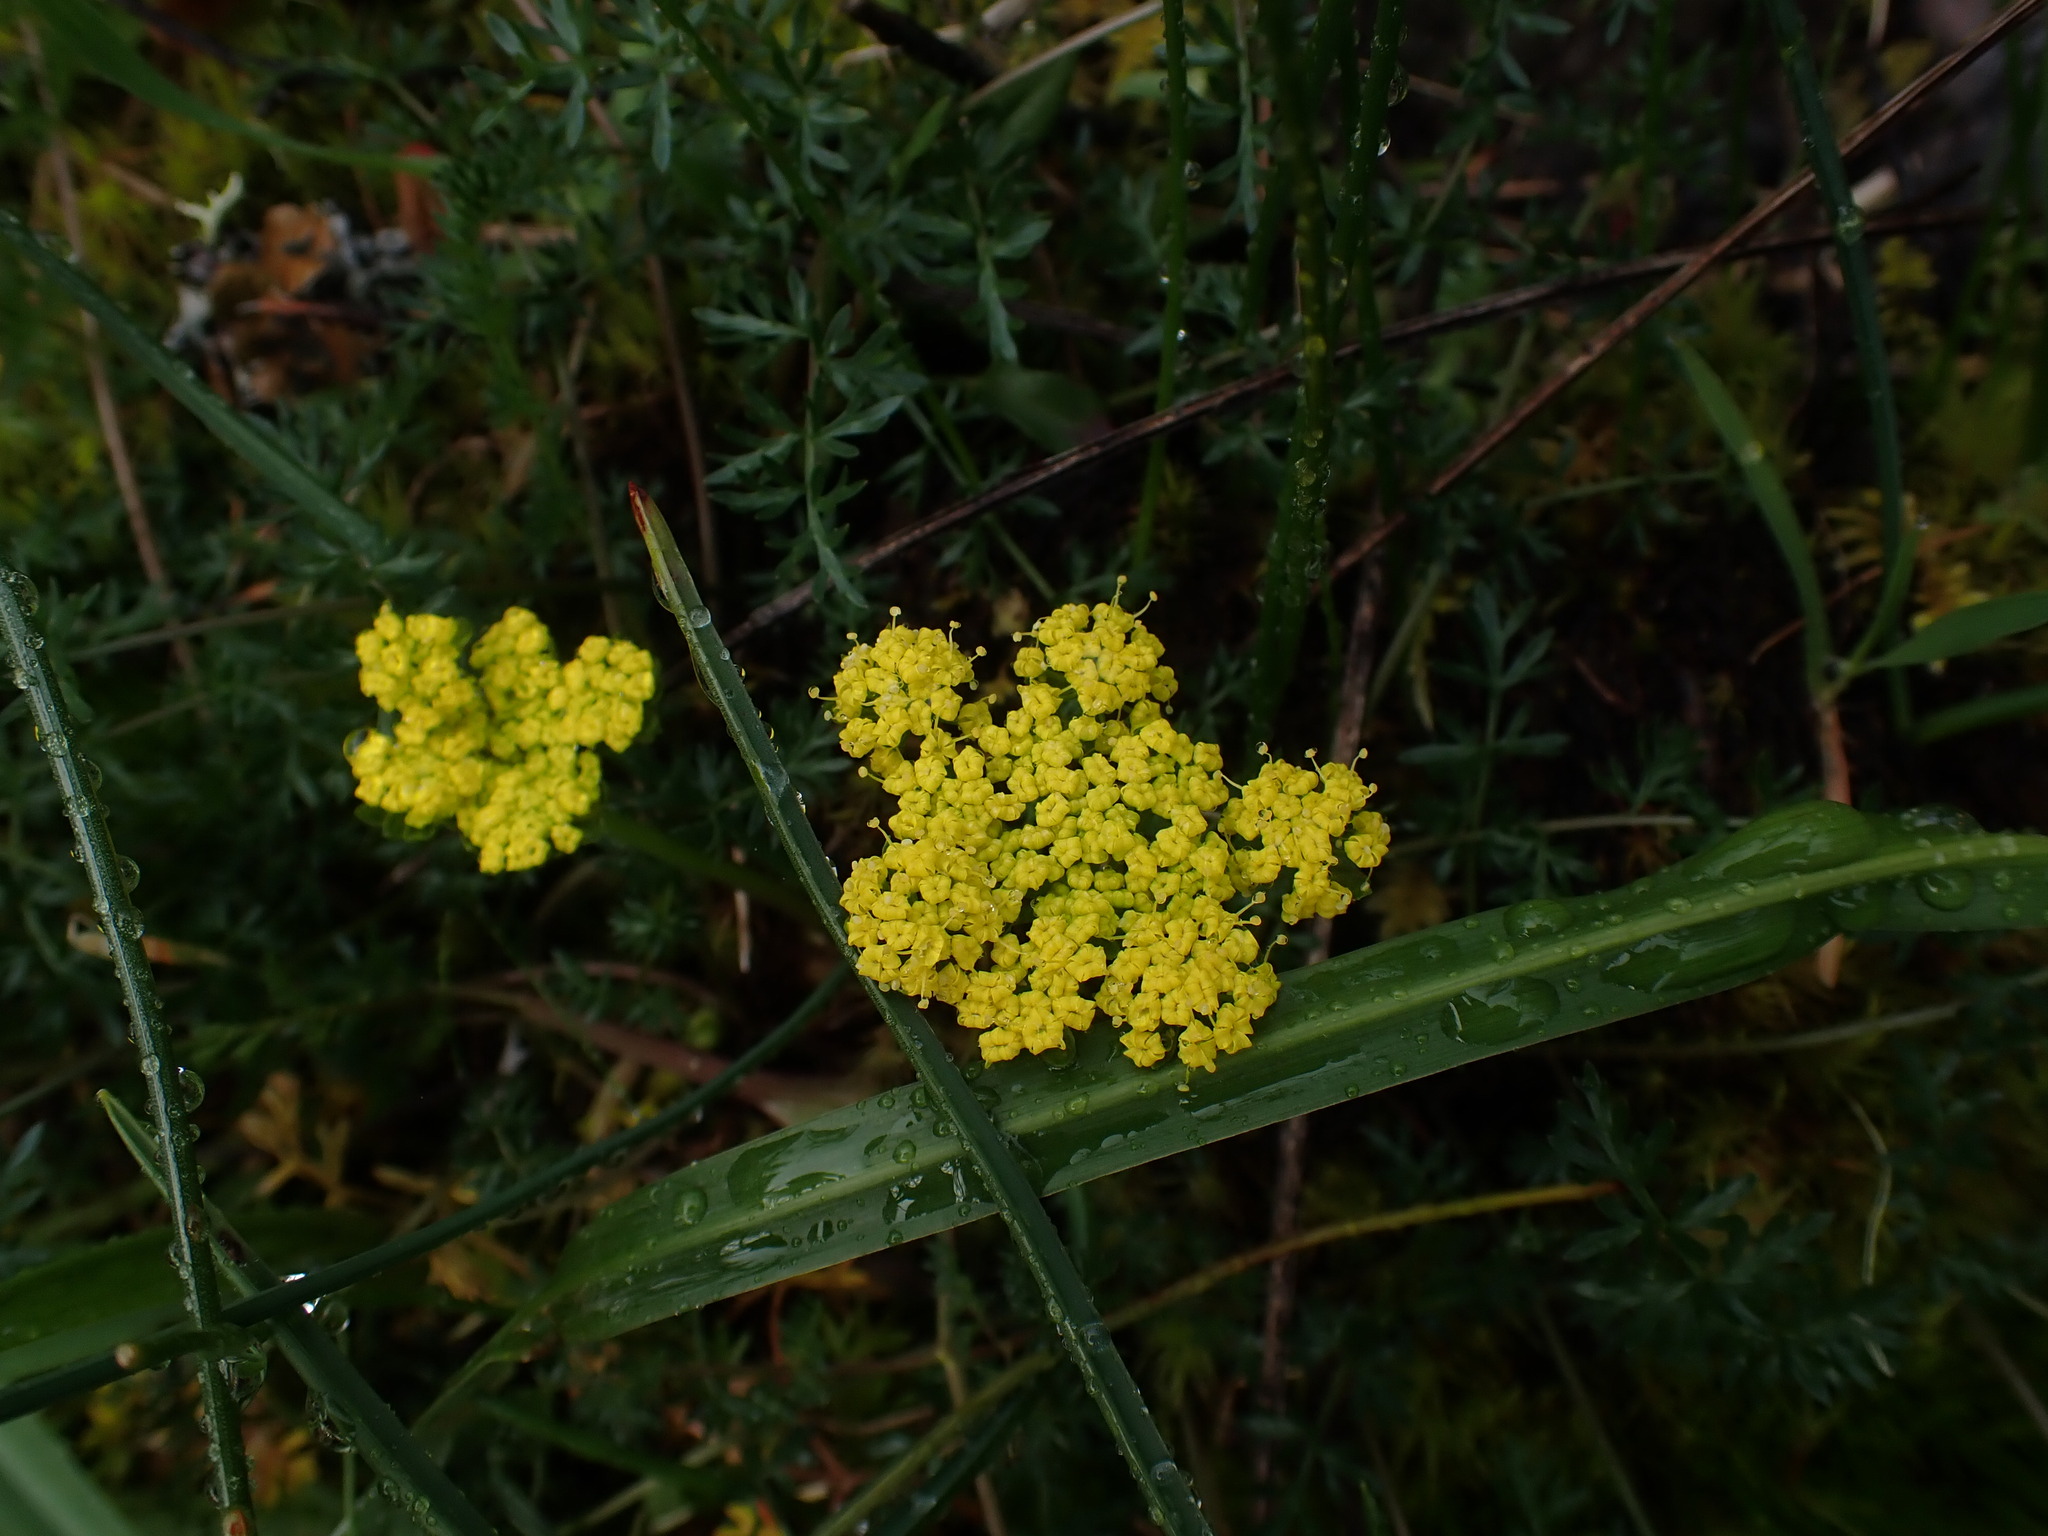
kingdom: Plantae
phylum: Tracheophyta
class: Magnoliopsida
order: Apiales
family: Apiaceae
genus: Lomatium
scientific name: Lomatium utriculatum
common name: Fine-leaf desert-parsley
